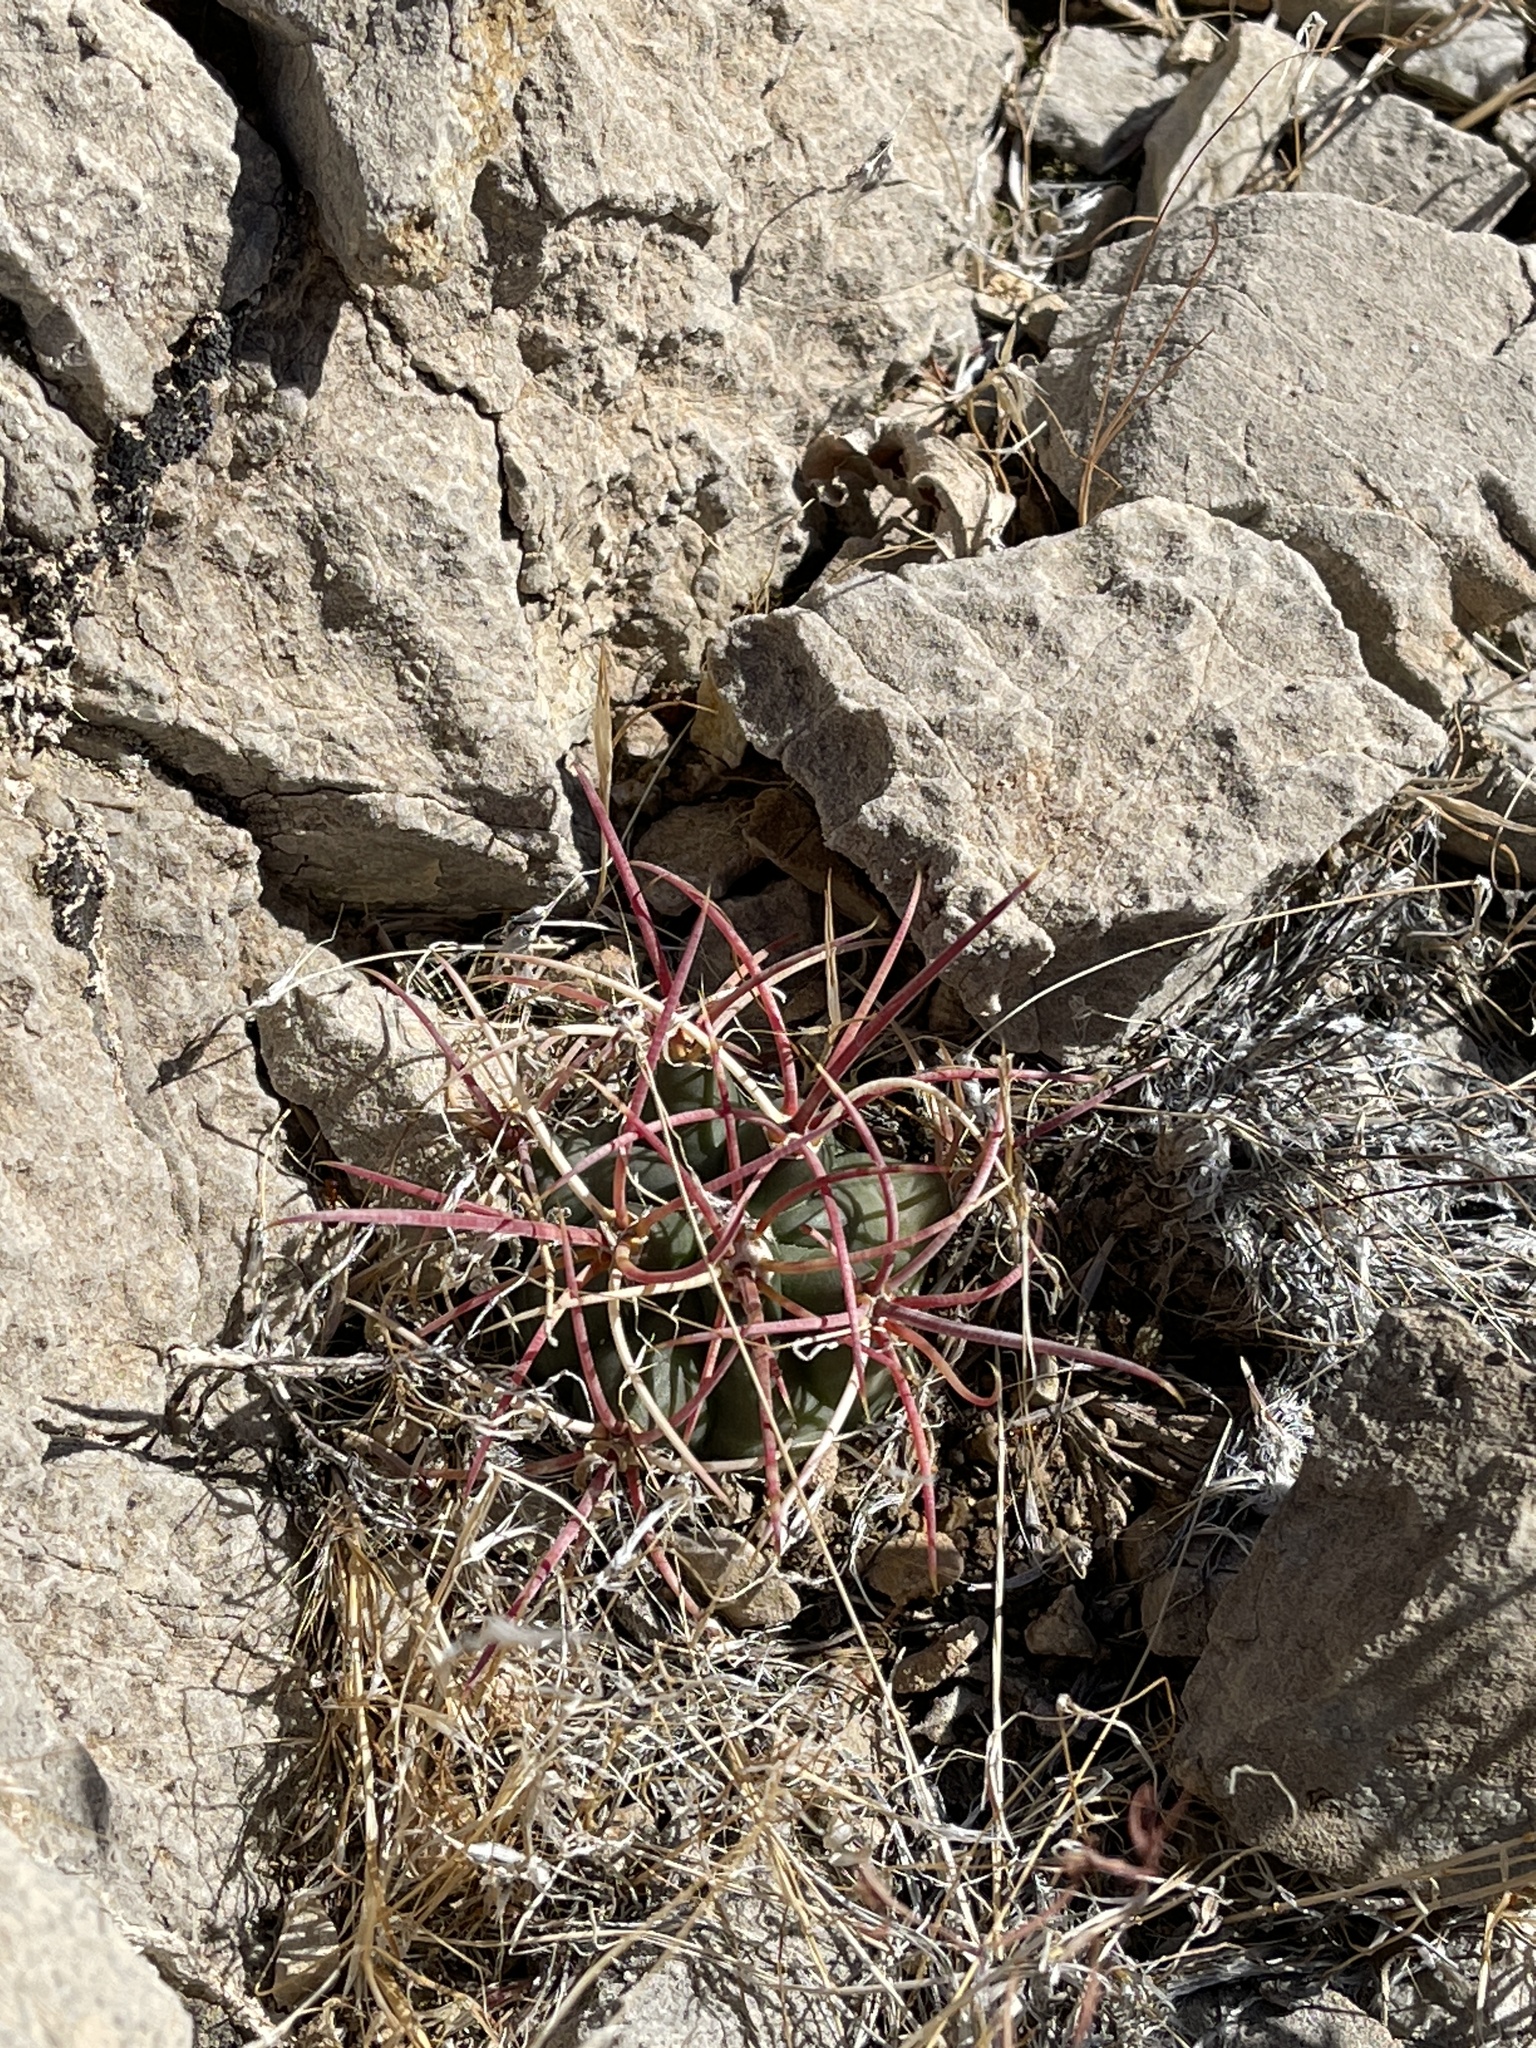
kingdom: Plantae
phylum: Tracheophyta
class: Magnoliopsida
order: Caryophyllales
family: Cactaceae
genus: Ferocactus
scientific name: Ferocactus cylindraceus
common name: California barrel cactus
